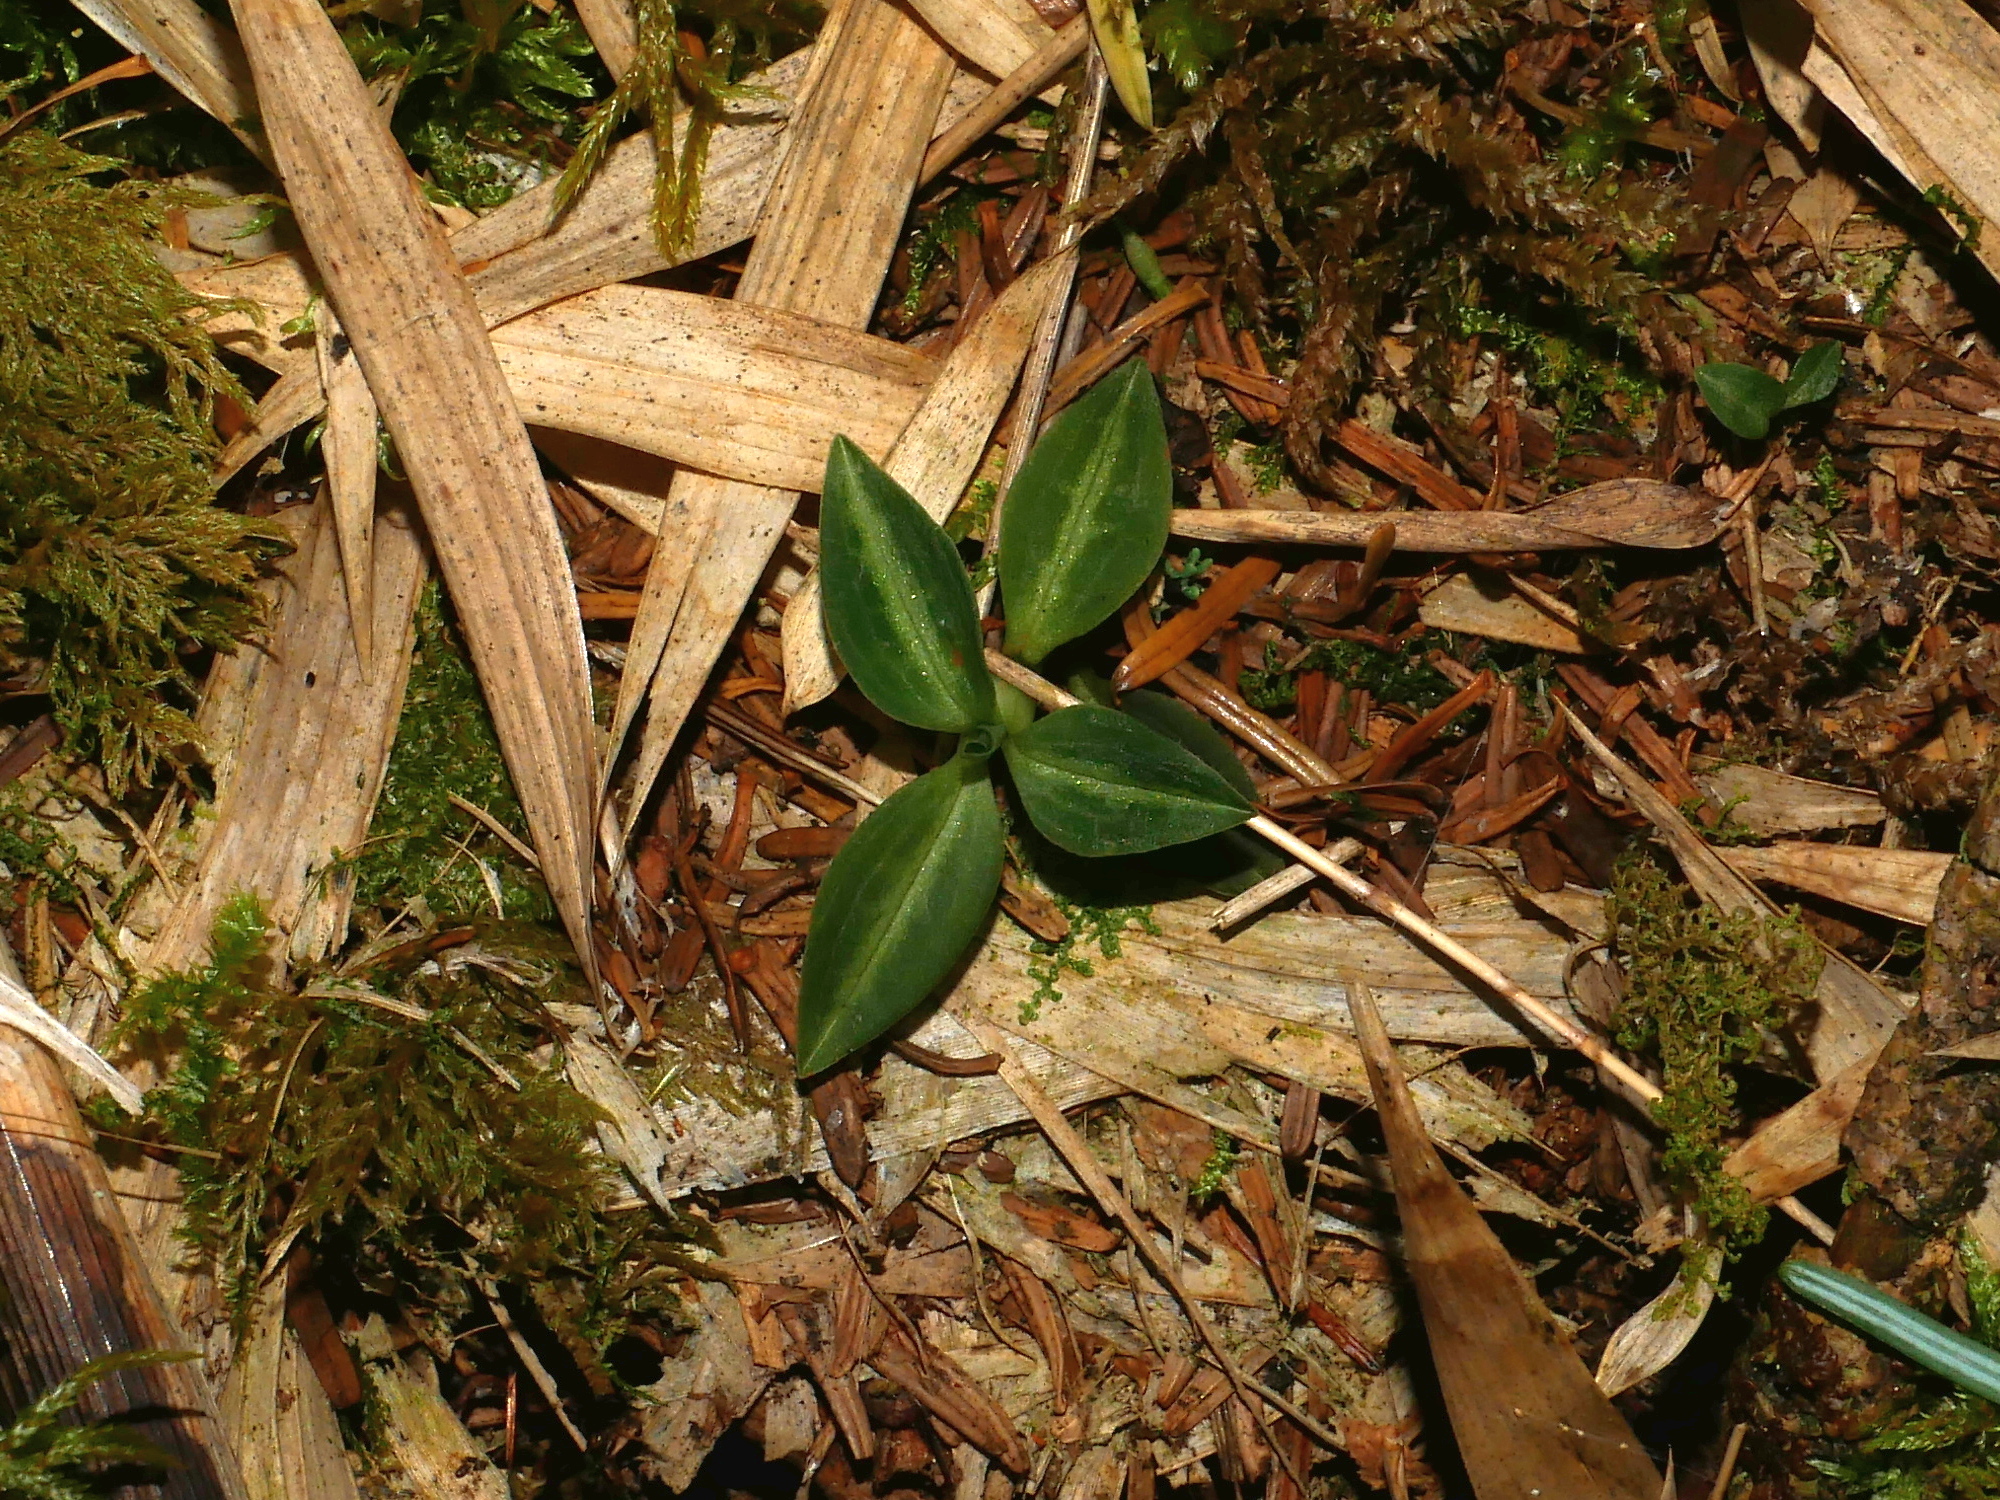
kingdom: Plantae
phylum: Tracheophyta
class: Liliopsida
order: Asparagales
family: Orchidaceae
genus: Goodyera
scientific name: Goodyera nankoensis
